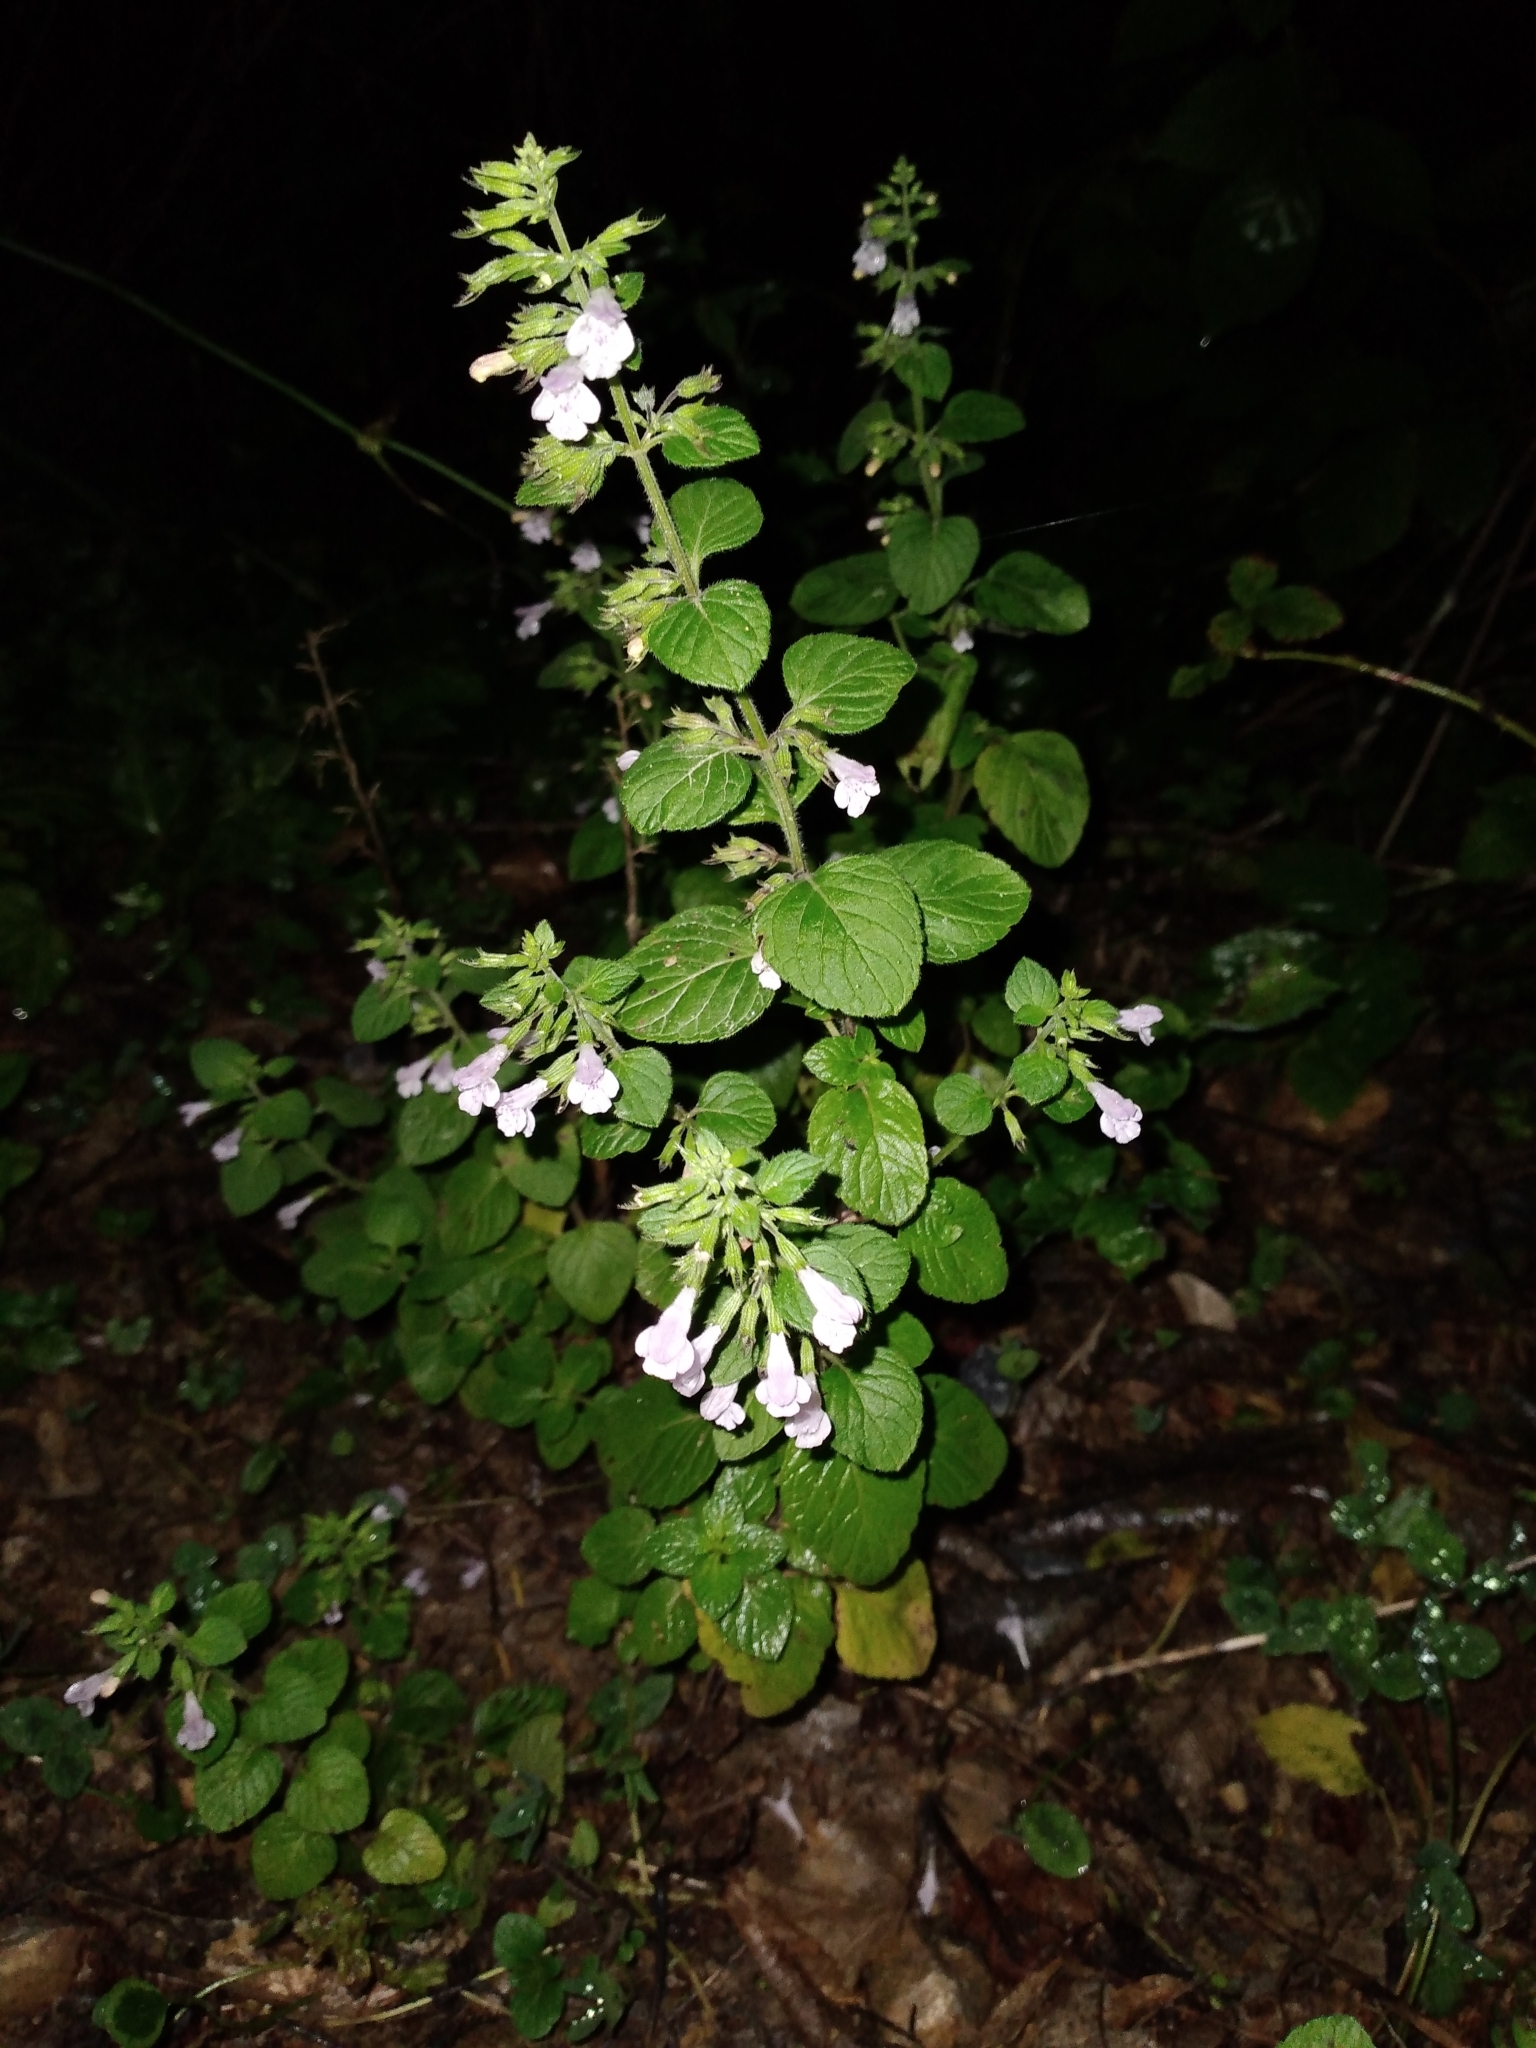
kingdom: Plantae
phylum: Tracheophyta
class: Magnoliopsida
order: Lamiales
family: Lamiaceae
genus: Clinopodium
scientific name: Clinopodium nepeta
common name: Lesser calamint
